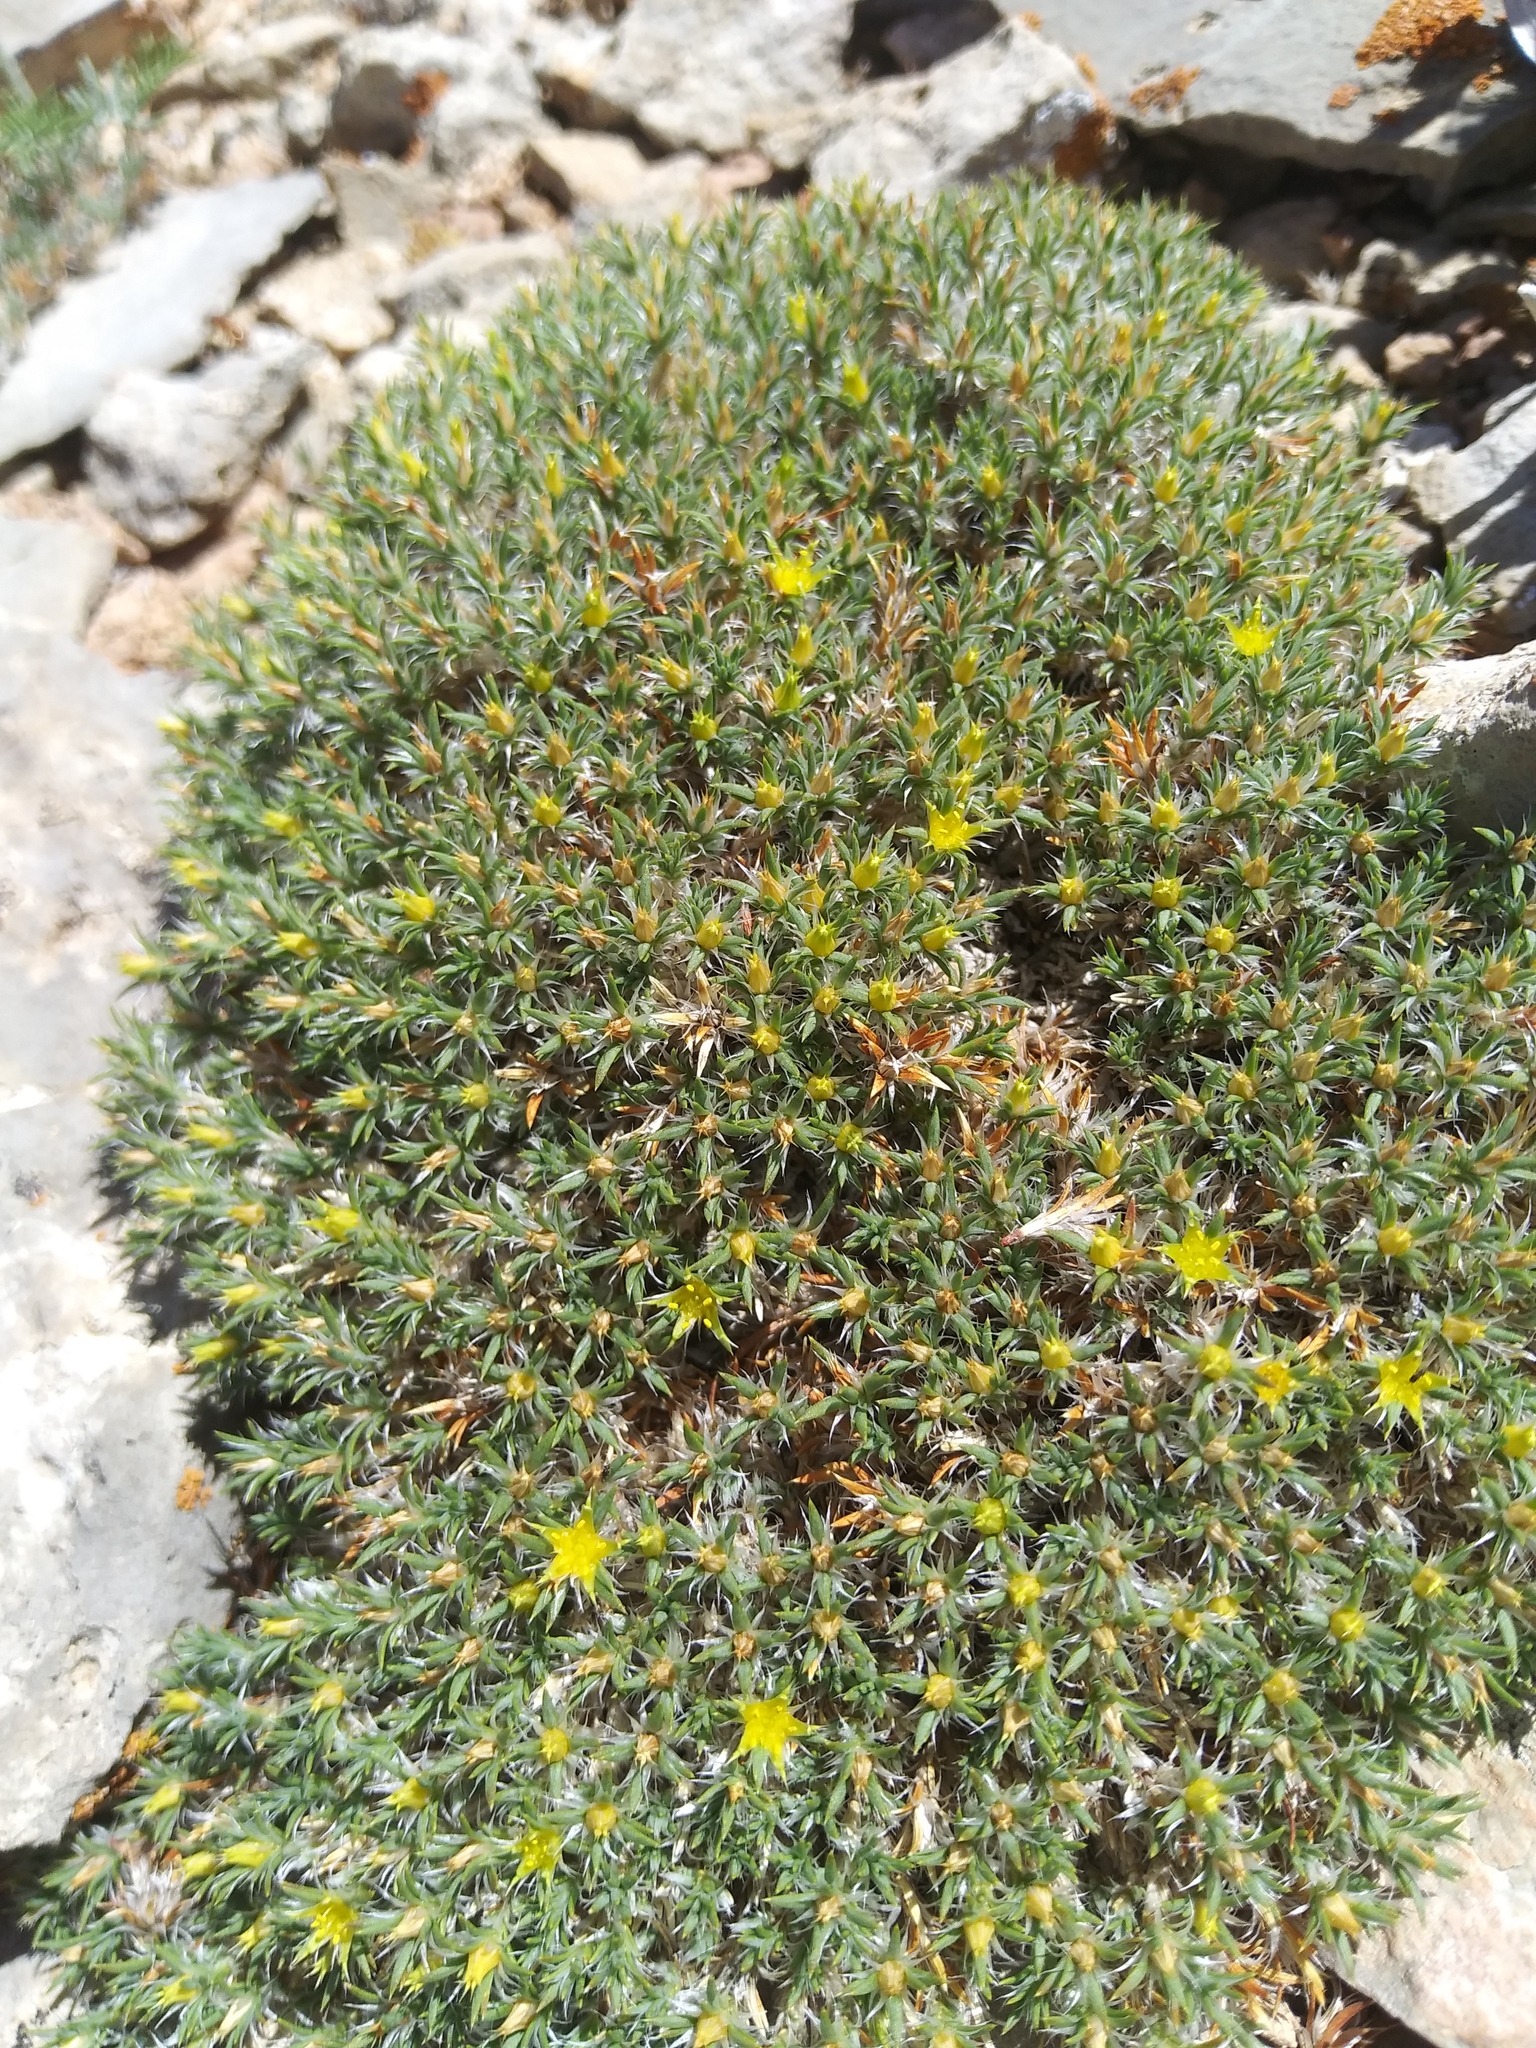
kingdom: Plantae
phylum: Tracheophyta
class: Magnoliopsida
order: Caryophyllales
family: Caryophyllaceae
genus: Paronychia
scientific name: Paronychia sessiliflora
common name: Creeping nailwort
